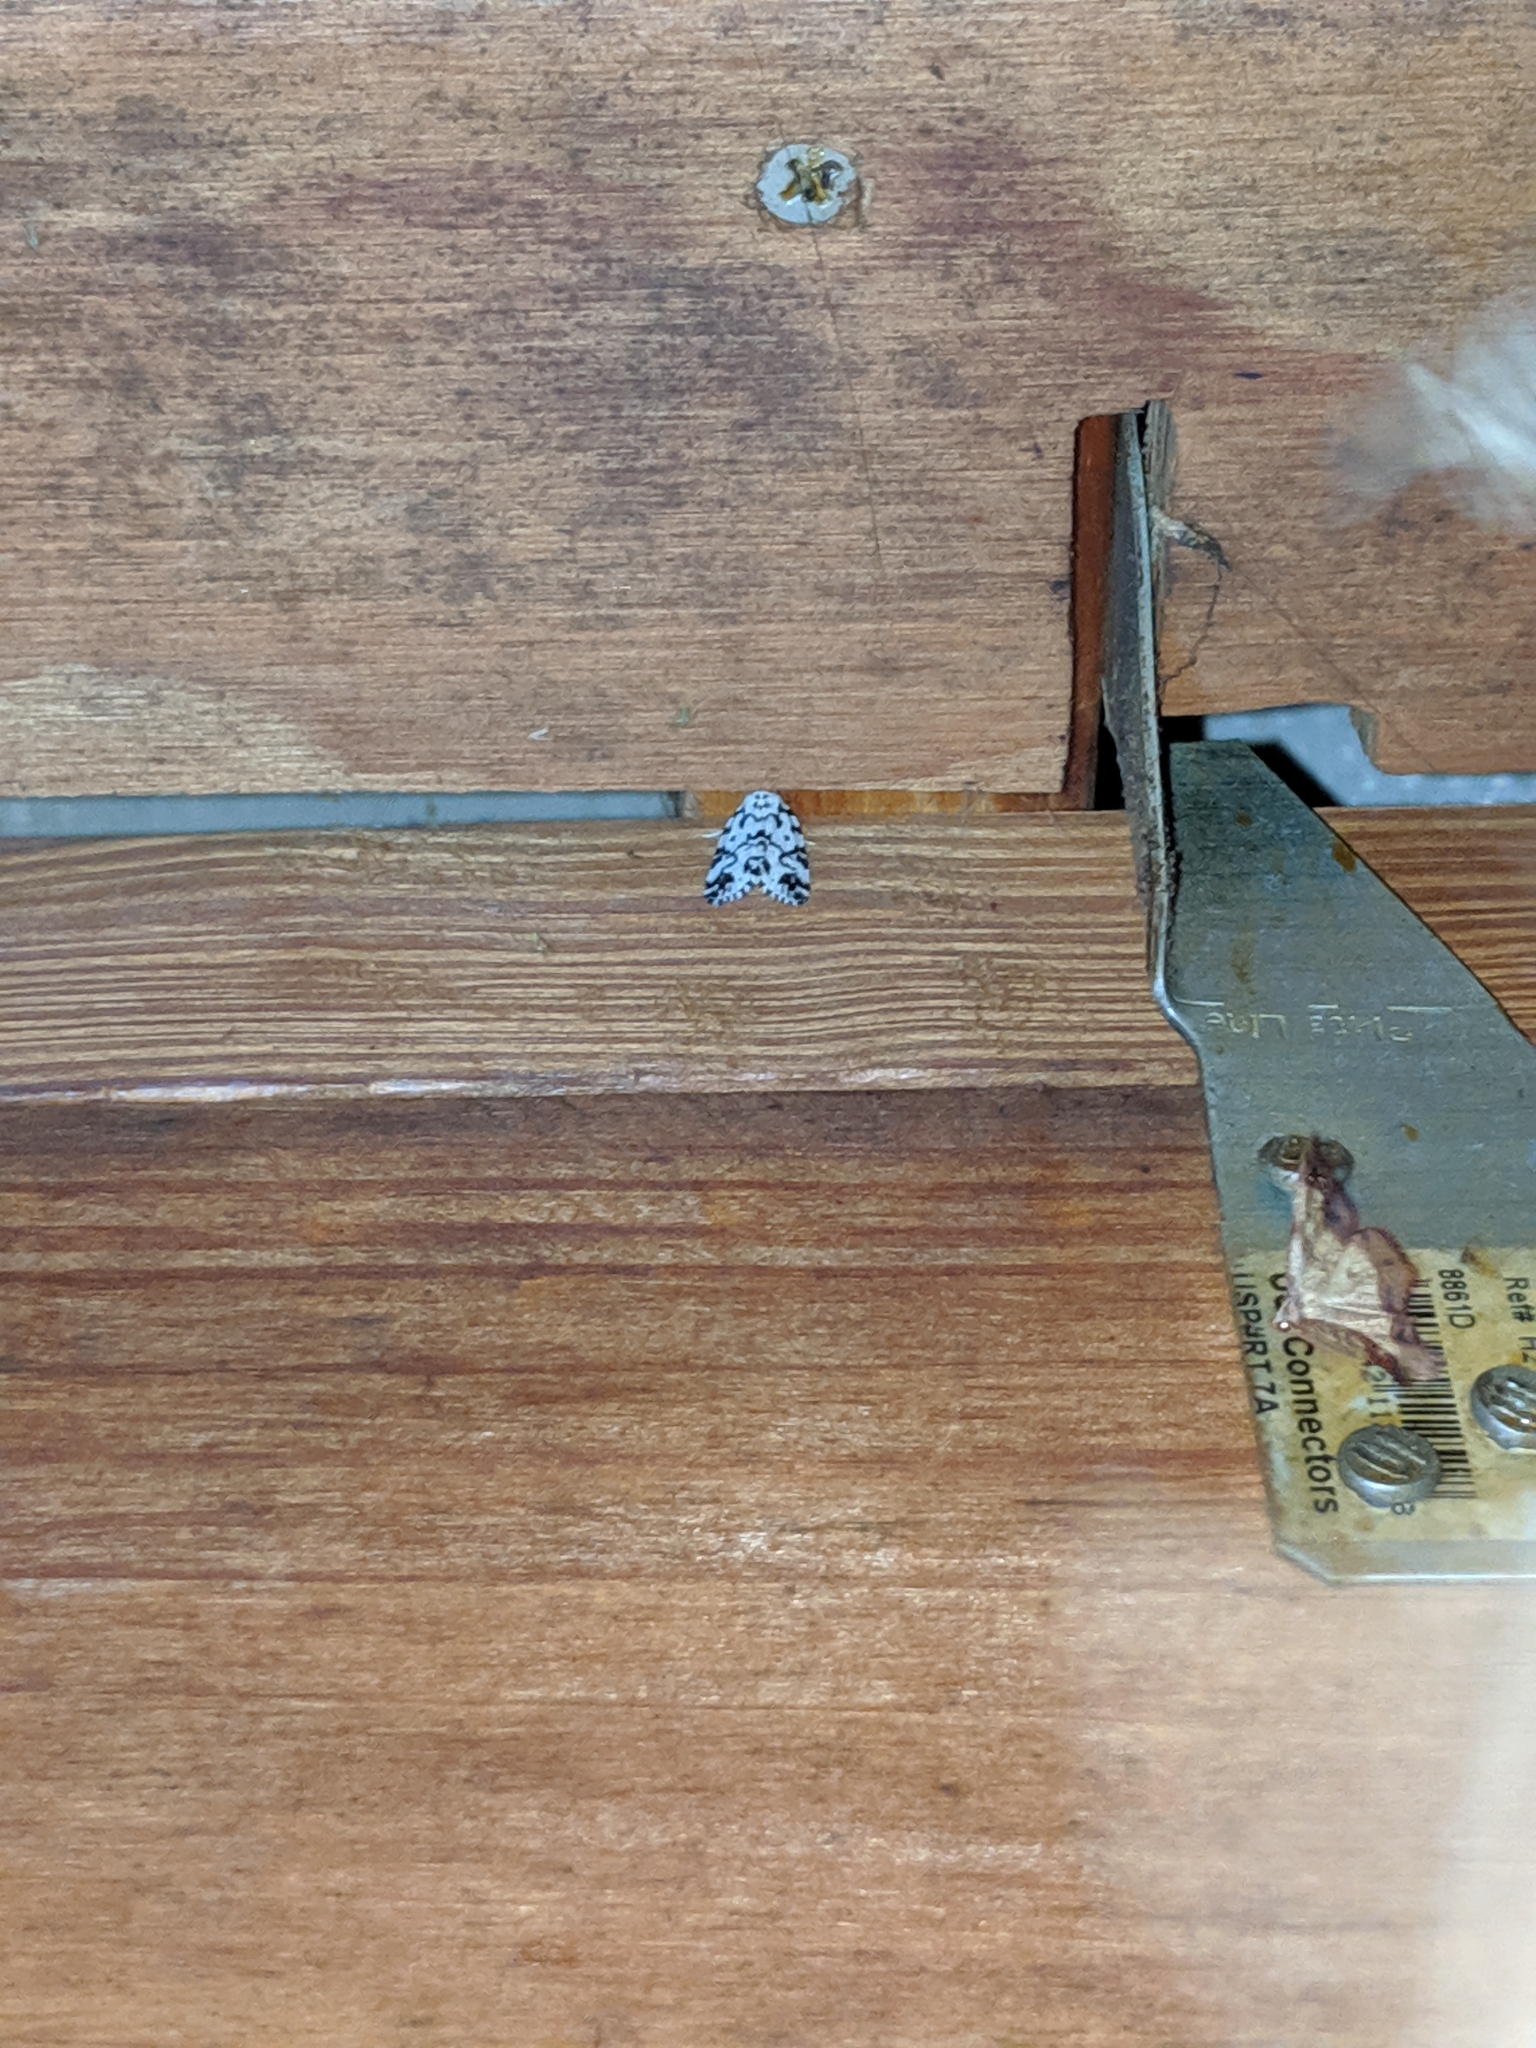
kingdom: Animalia
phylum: Arthropoda
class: Insecta
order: Lepidoptera
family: Noctuidae
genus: Polygrammate
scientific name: Polygrammate hebraeicum
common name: Hebrew moth
